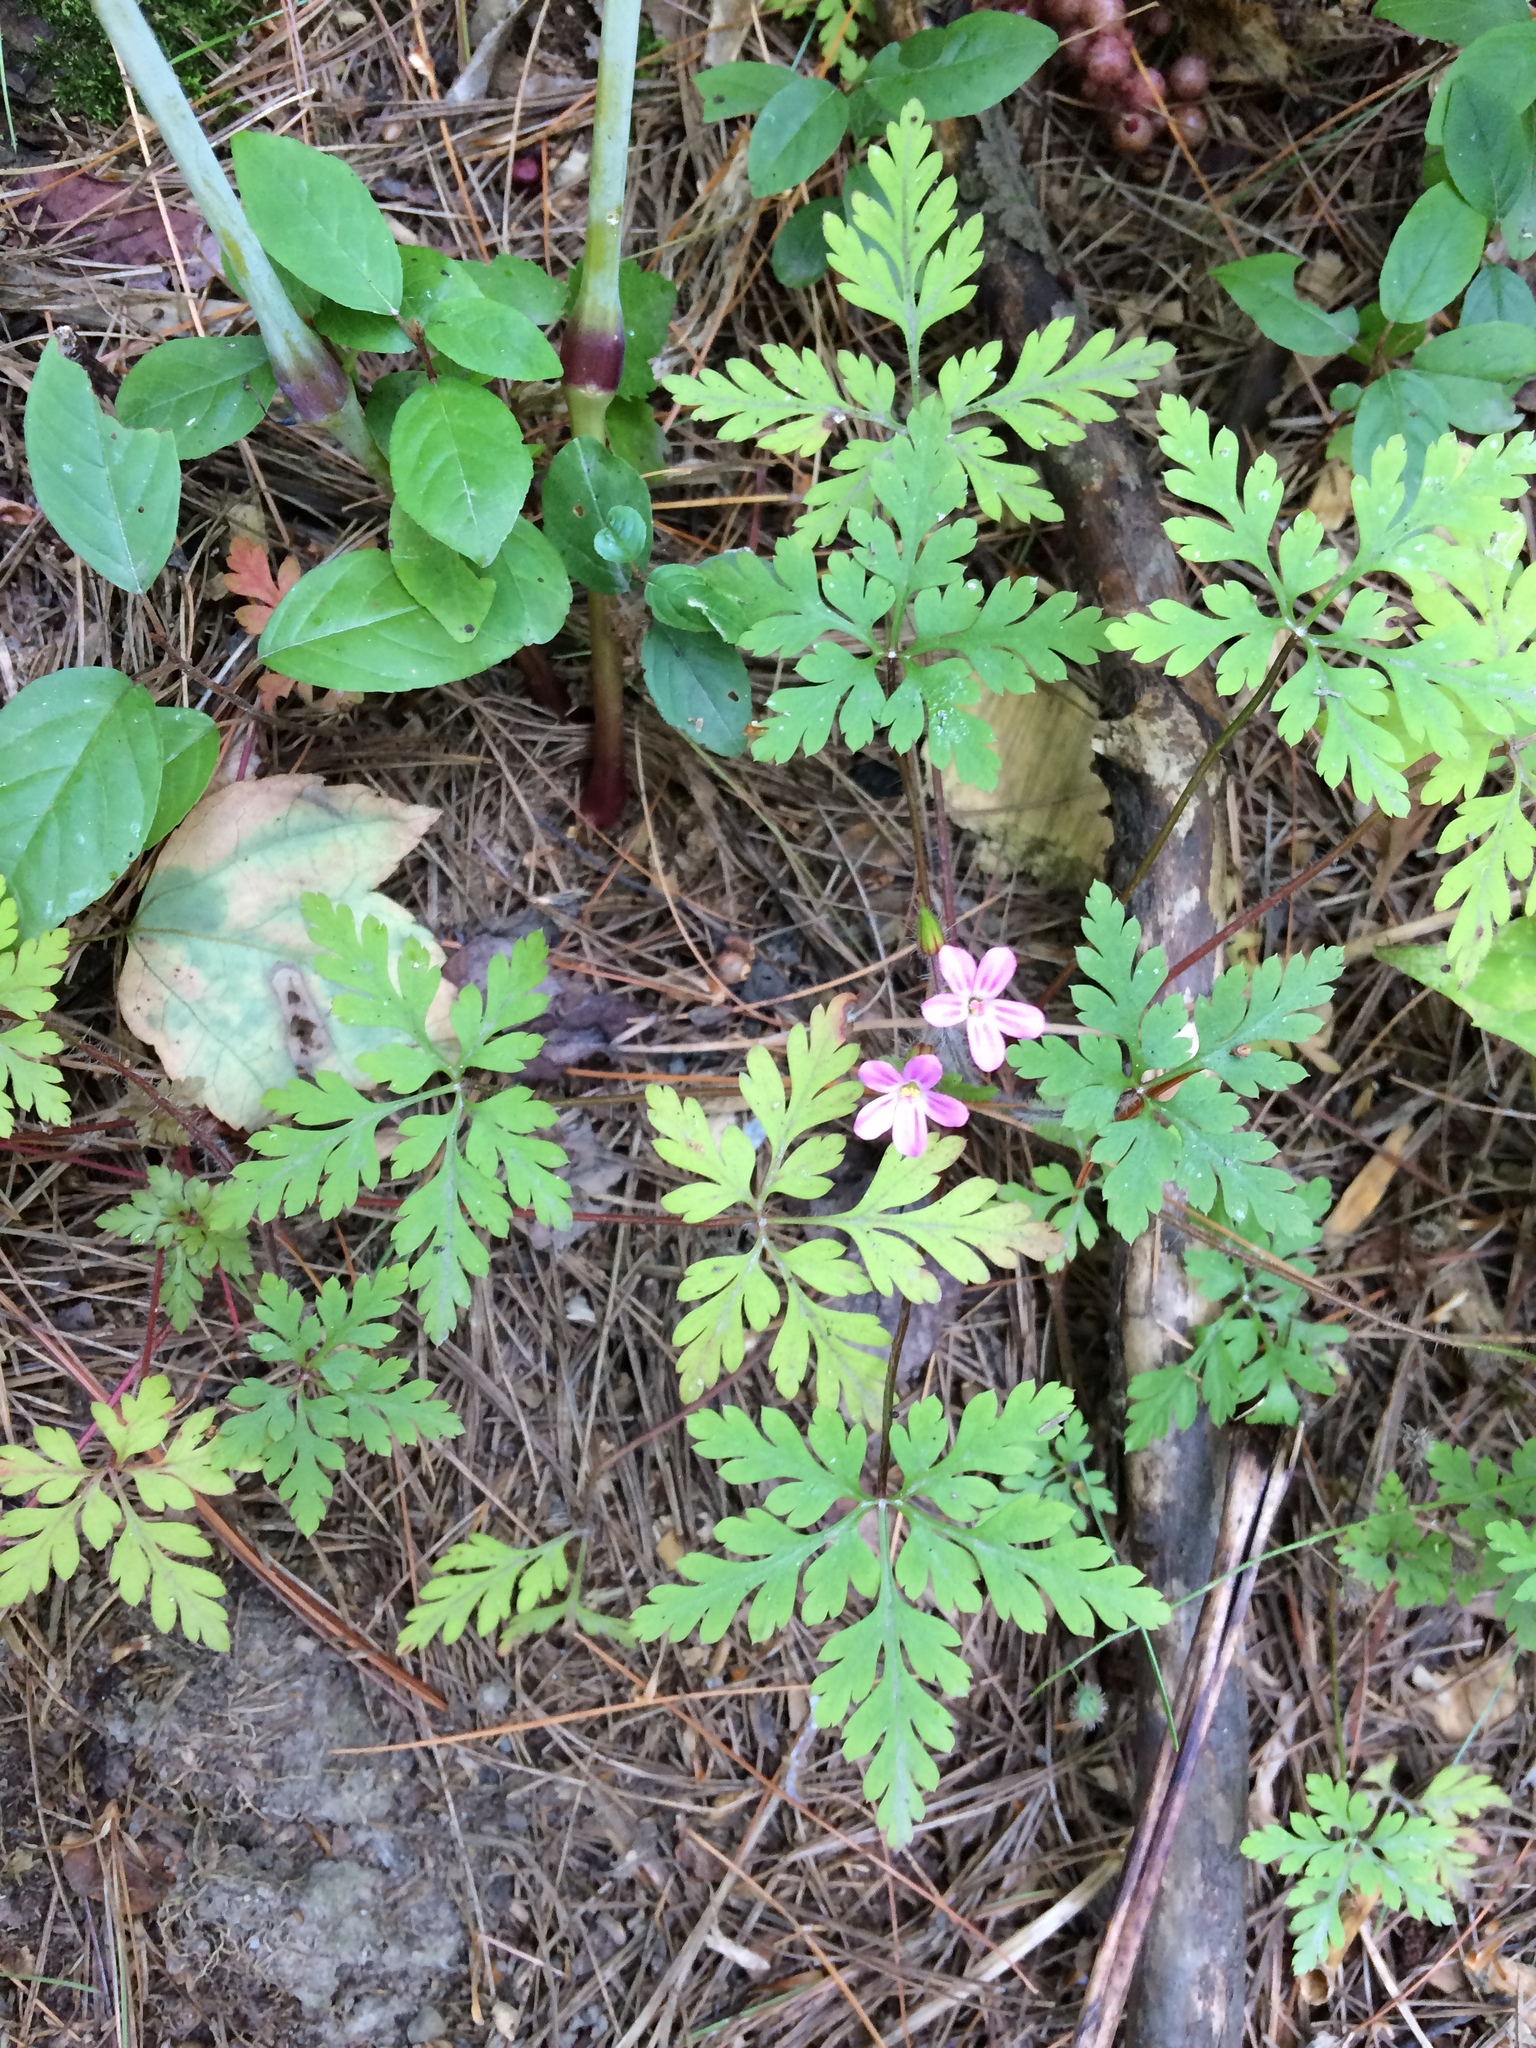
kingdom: Plantae
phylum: Tracheophyta
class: Magnoliopsida
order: Geraniales
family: Geraniaceae
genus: Geranium
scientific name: Geranium robertianum
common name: Herb-robert
